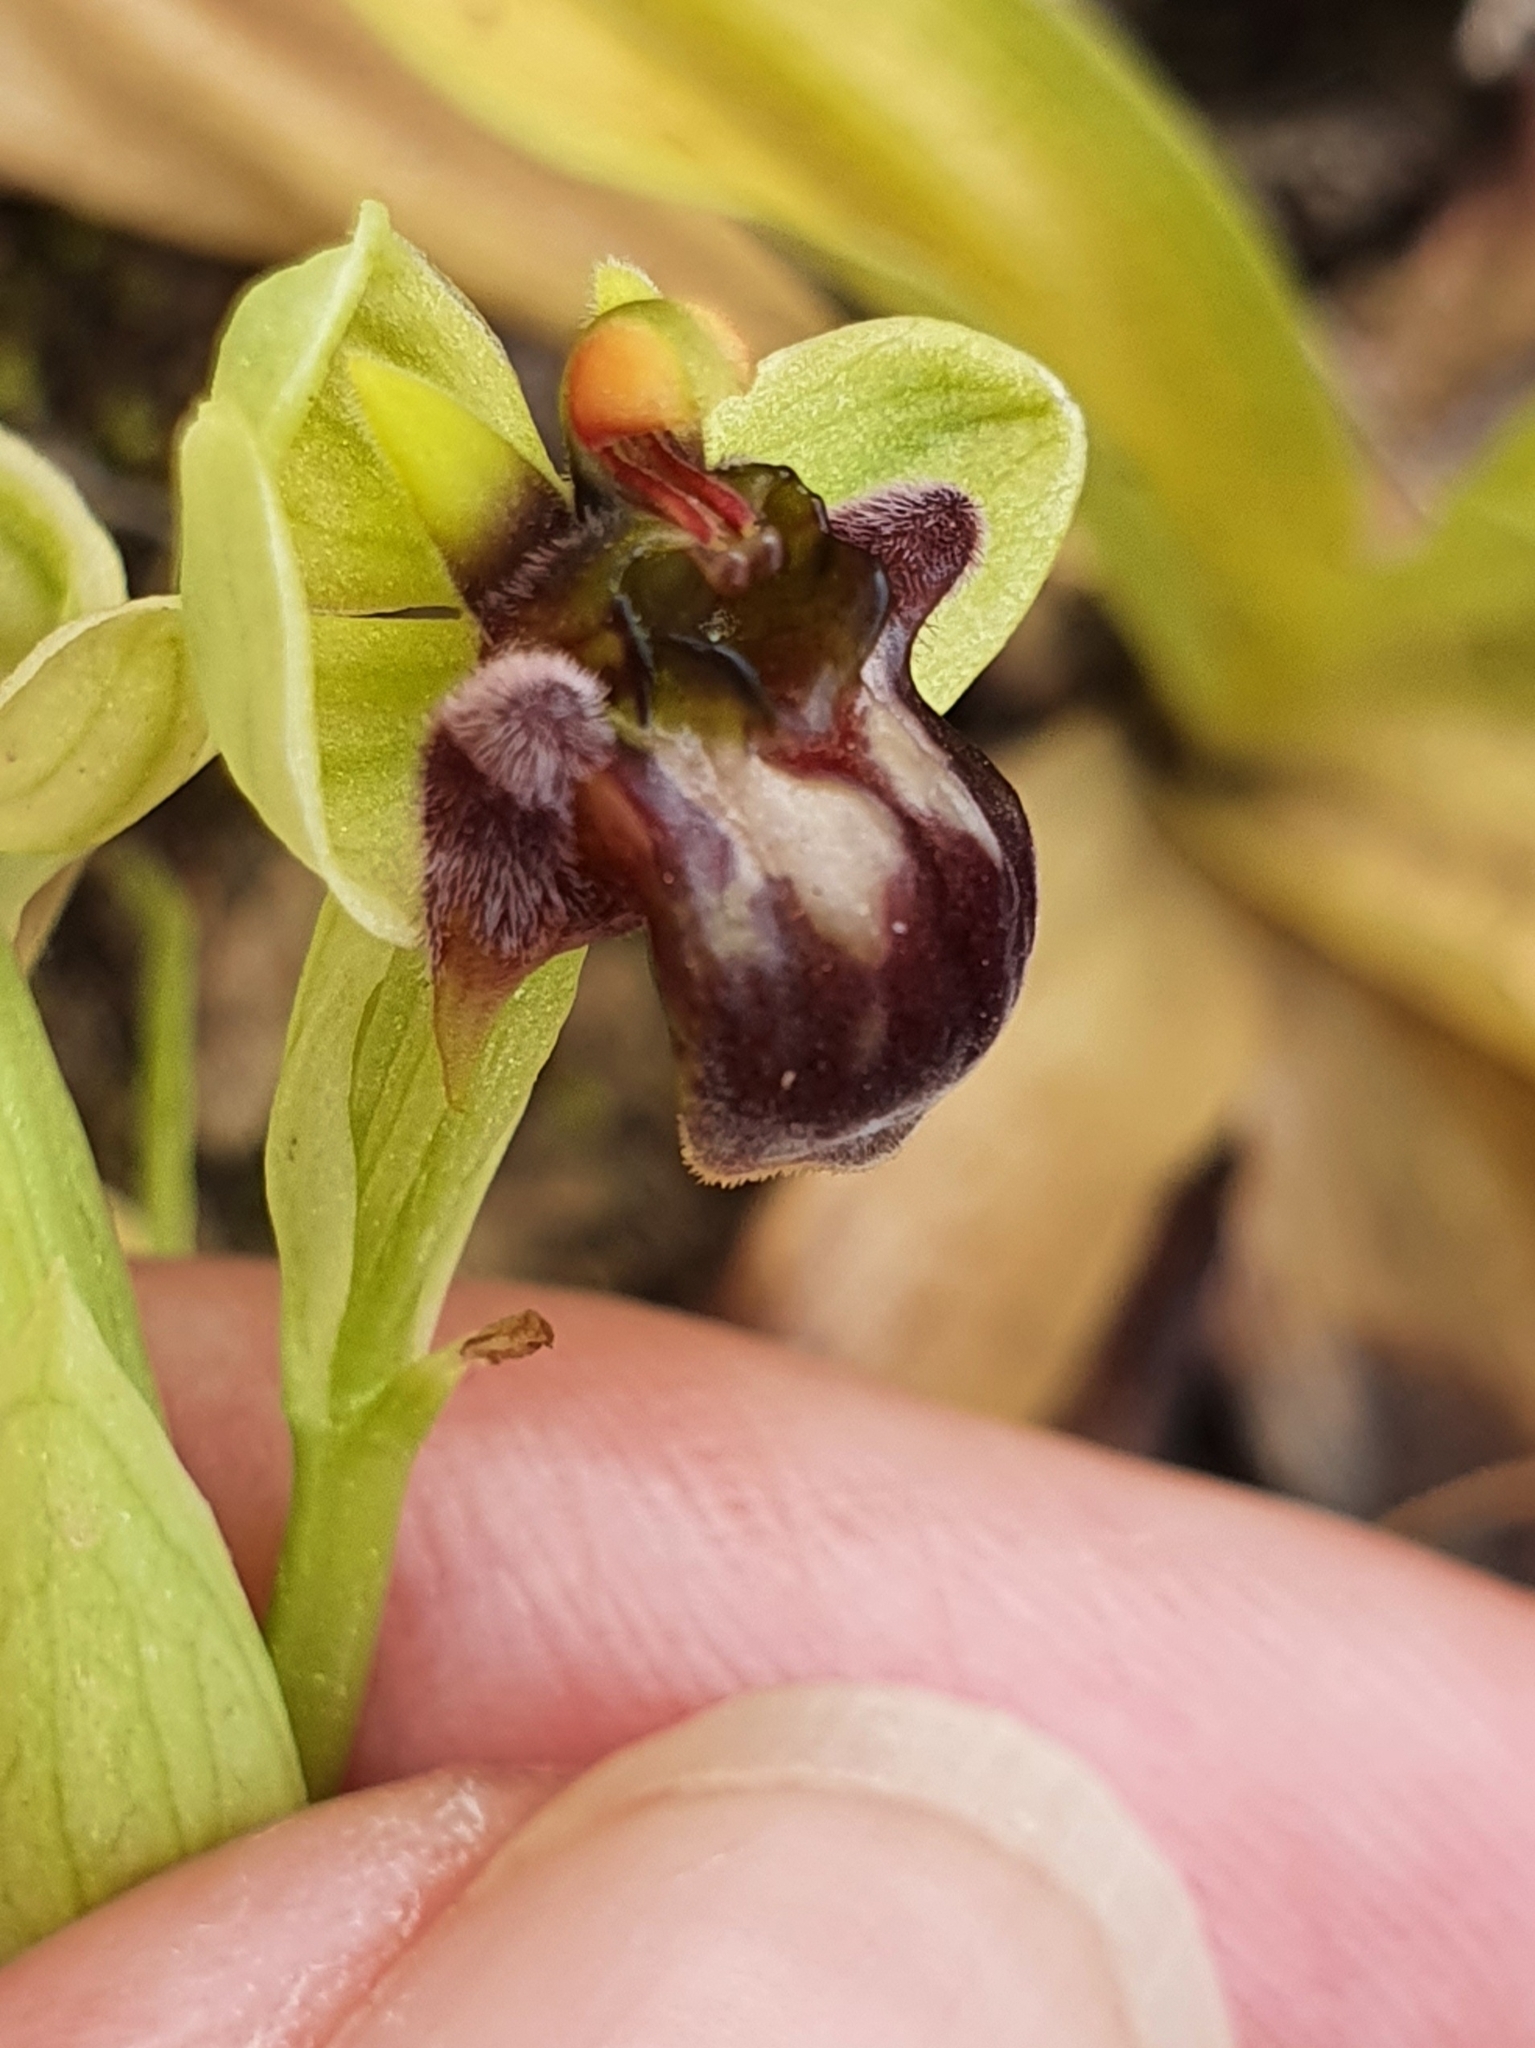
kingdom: Plantae
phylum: Tracheophyta
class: Liliopsida
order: Asparagales
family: Orchidaceae
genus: Ophrys
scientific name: Ophrys bombyliflora
